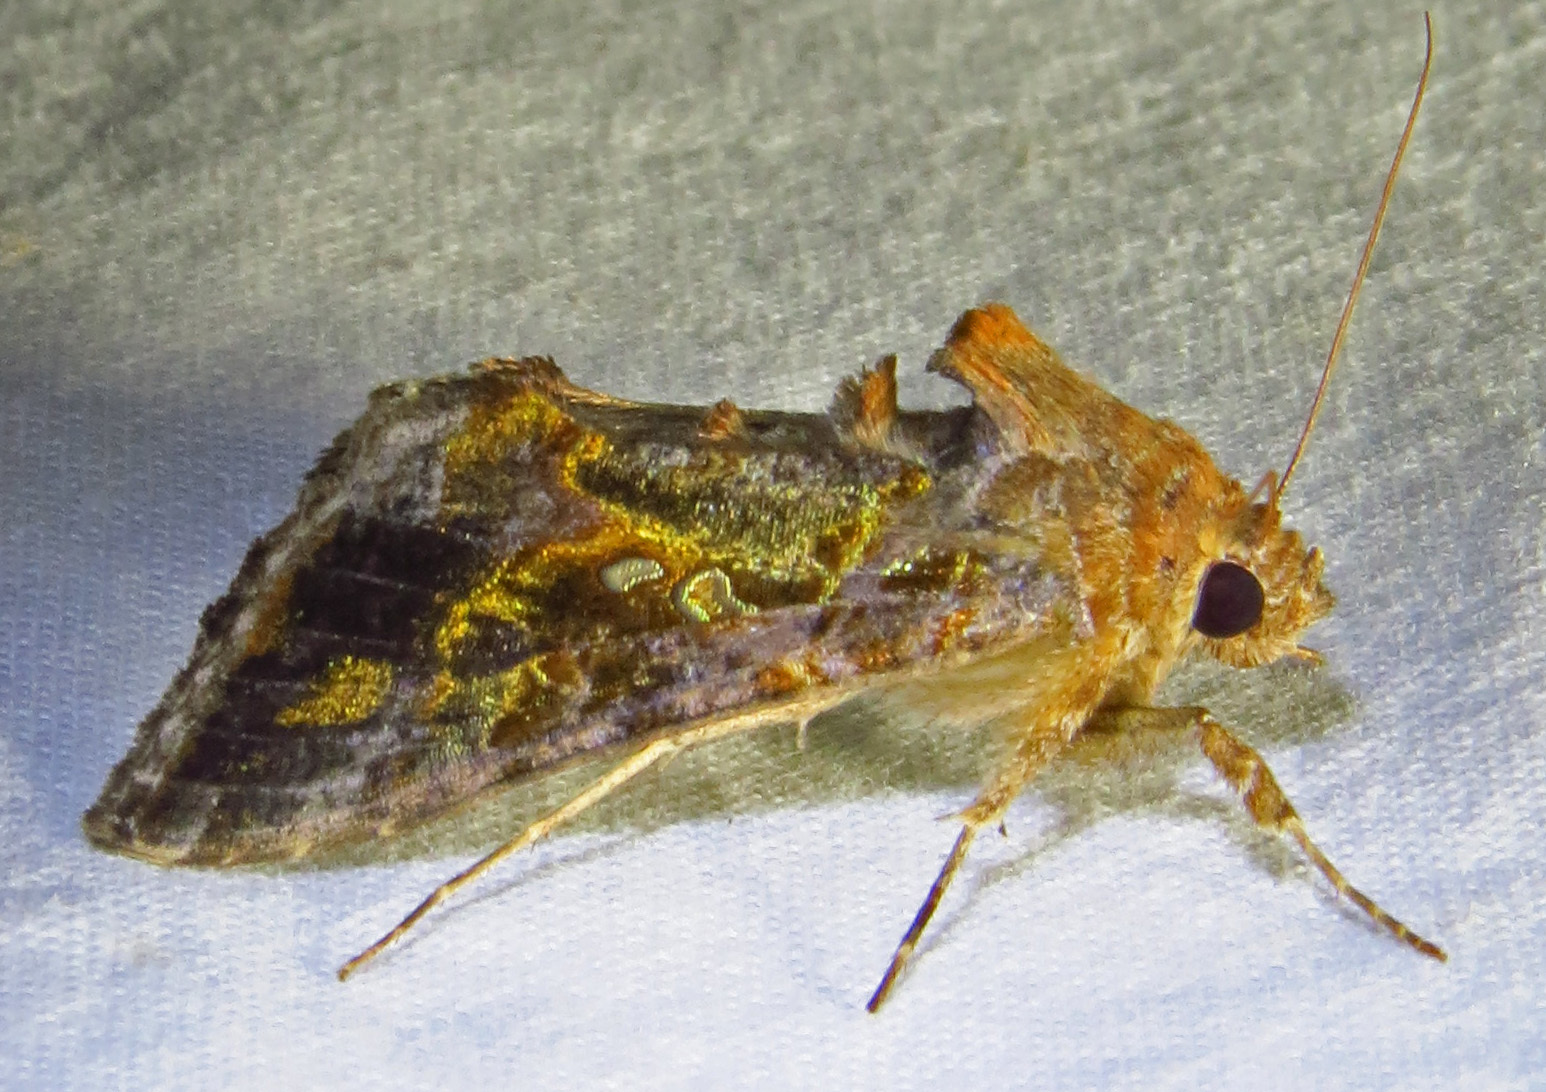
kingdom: Animalia
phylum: Arthropoda
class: Insecta
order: Lepidoptera
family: Noctuidae
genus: Chrysodeixis
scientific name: Chrysodeixis includens
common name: Cutworm moth
